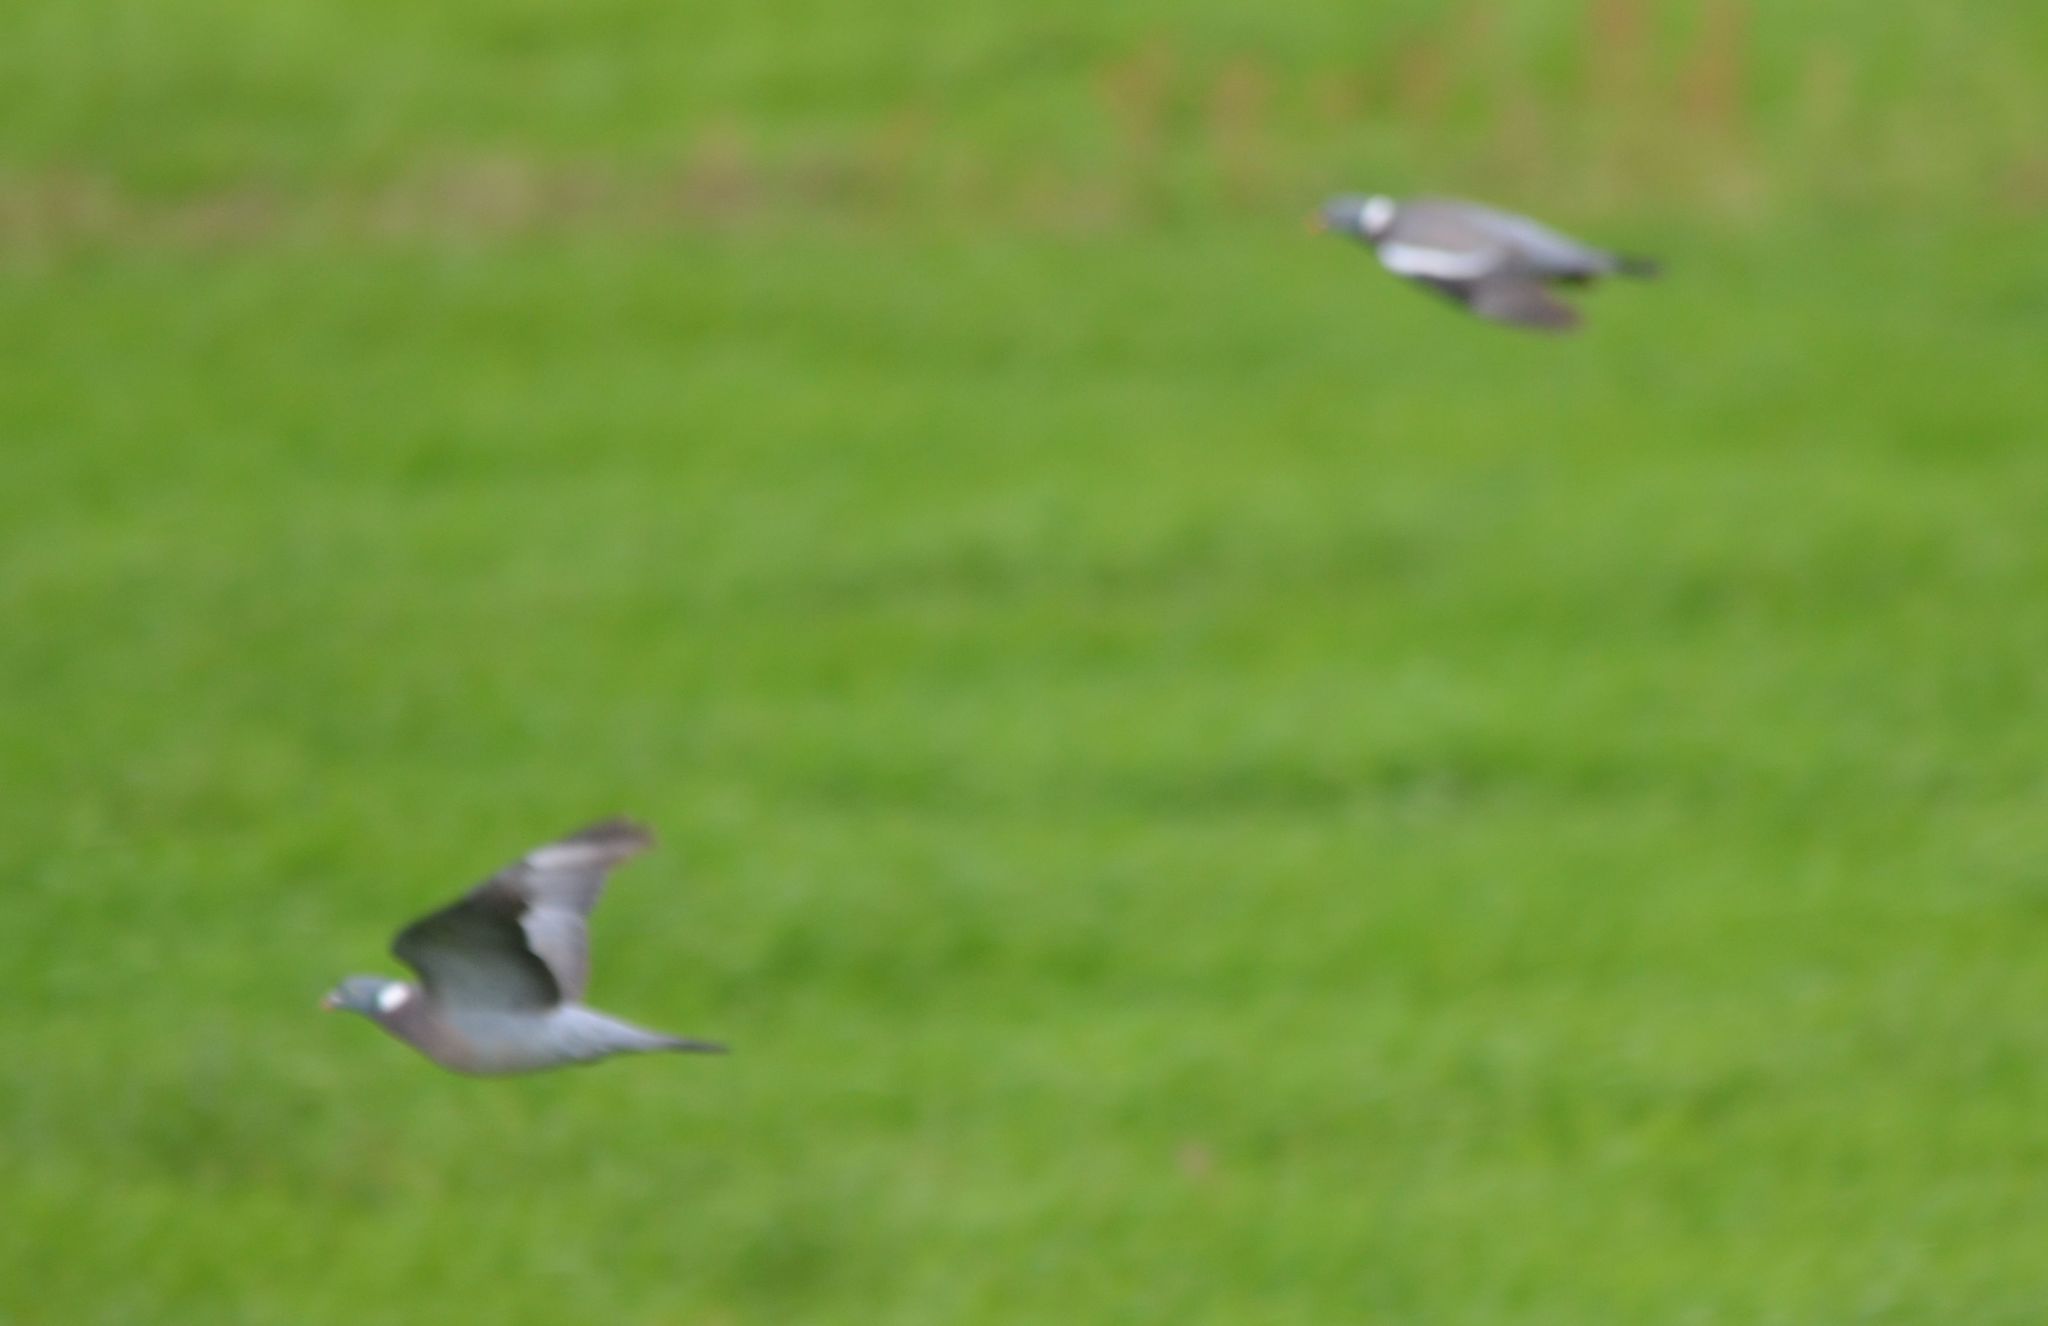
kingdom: Animalia
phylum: Chordata
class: Aves
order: Columbiformes
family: Columbidae
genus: Columba
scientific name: Columba palumbus
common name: Common wood pigeon
